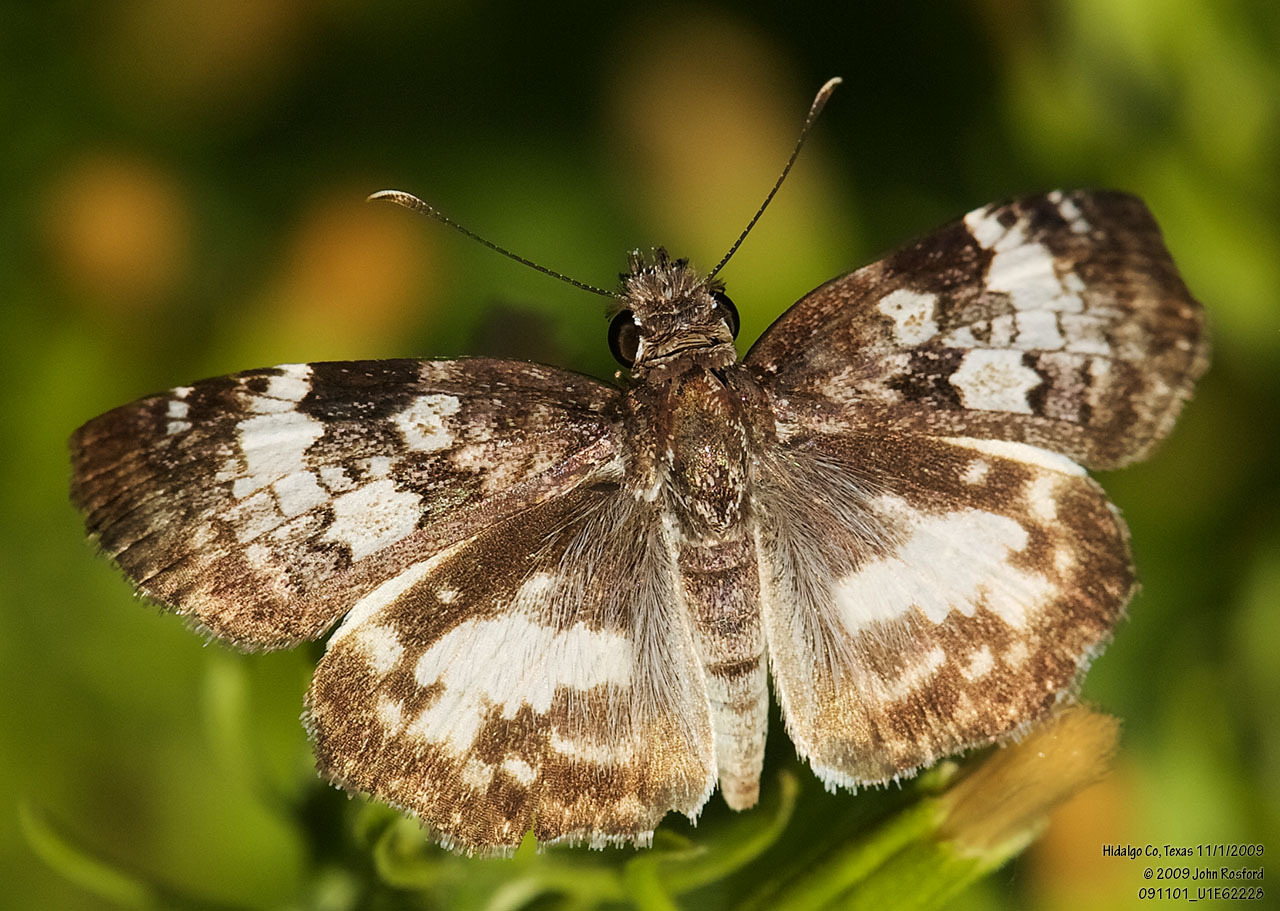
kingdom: Animalia
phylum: Arthropoda
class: Insecta
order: Lepidoptera
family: Hesperiidae
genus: Chiothion
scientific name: Chiothion georgina
